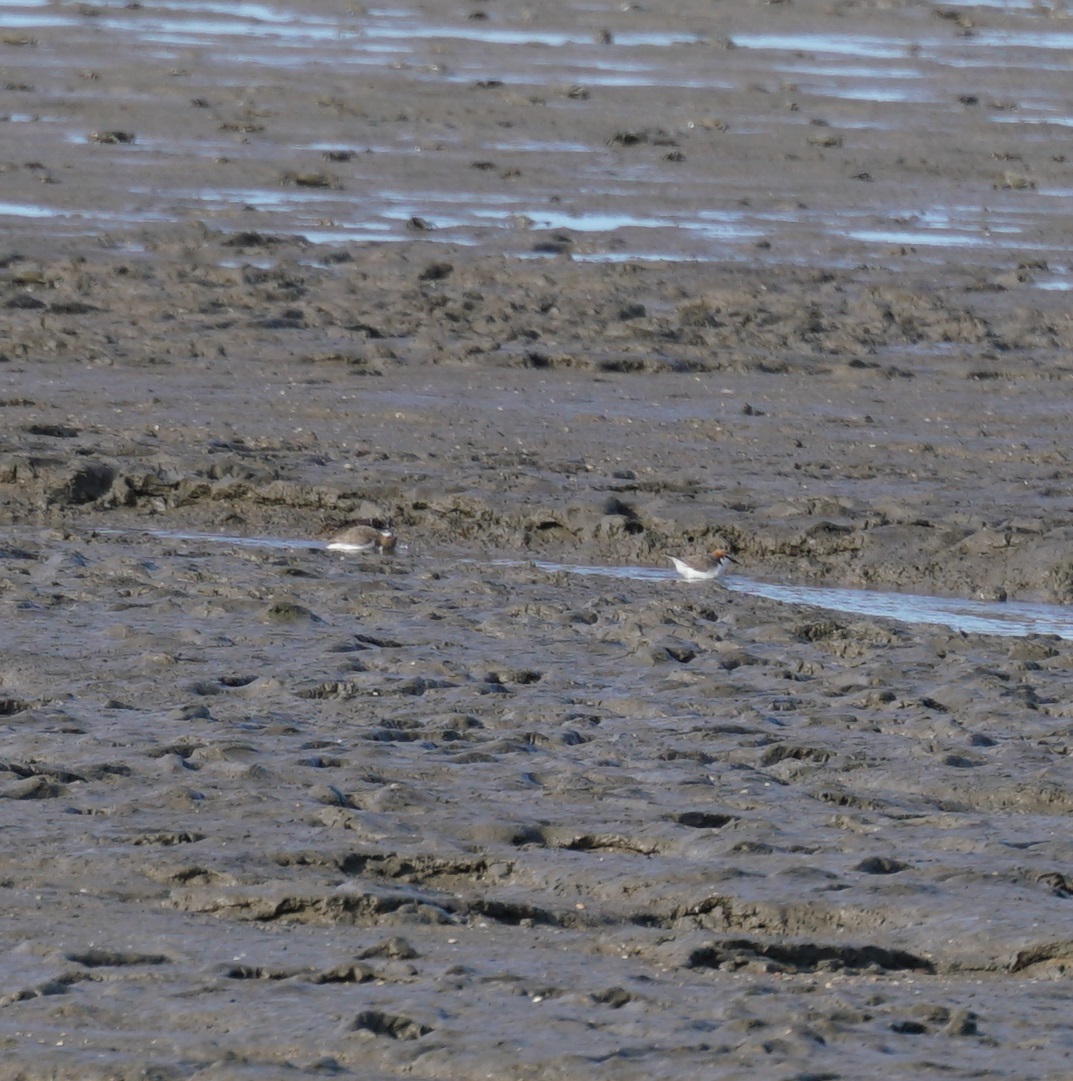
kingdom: Animalia
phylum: Chordata
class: Aves
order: Charadriiformes
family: Charadriidae
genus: Anarhynchus
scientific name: Anarhynchus
